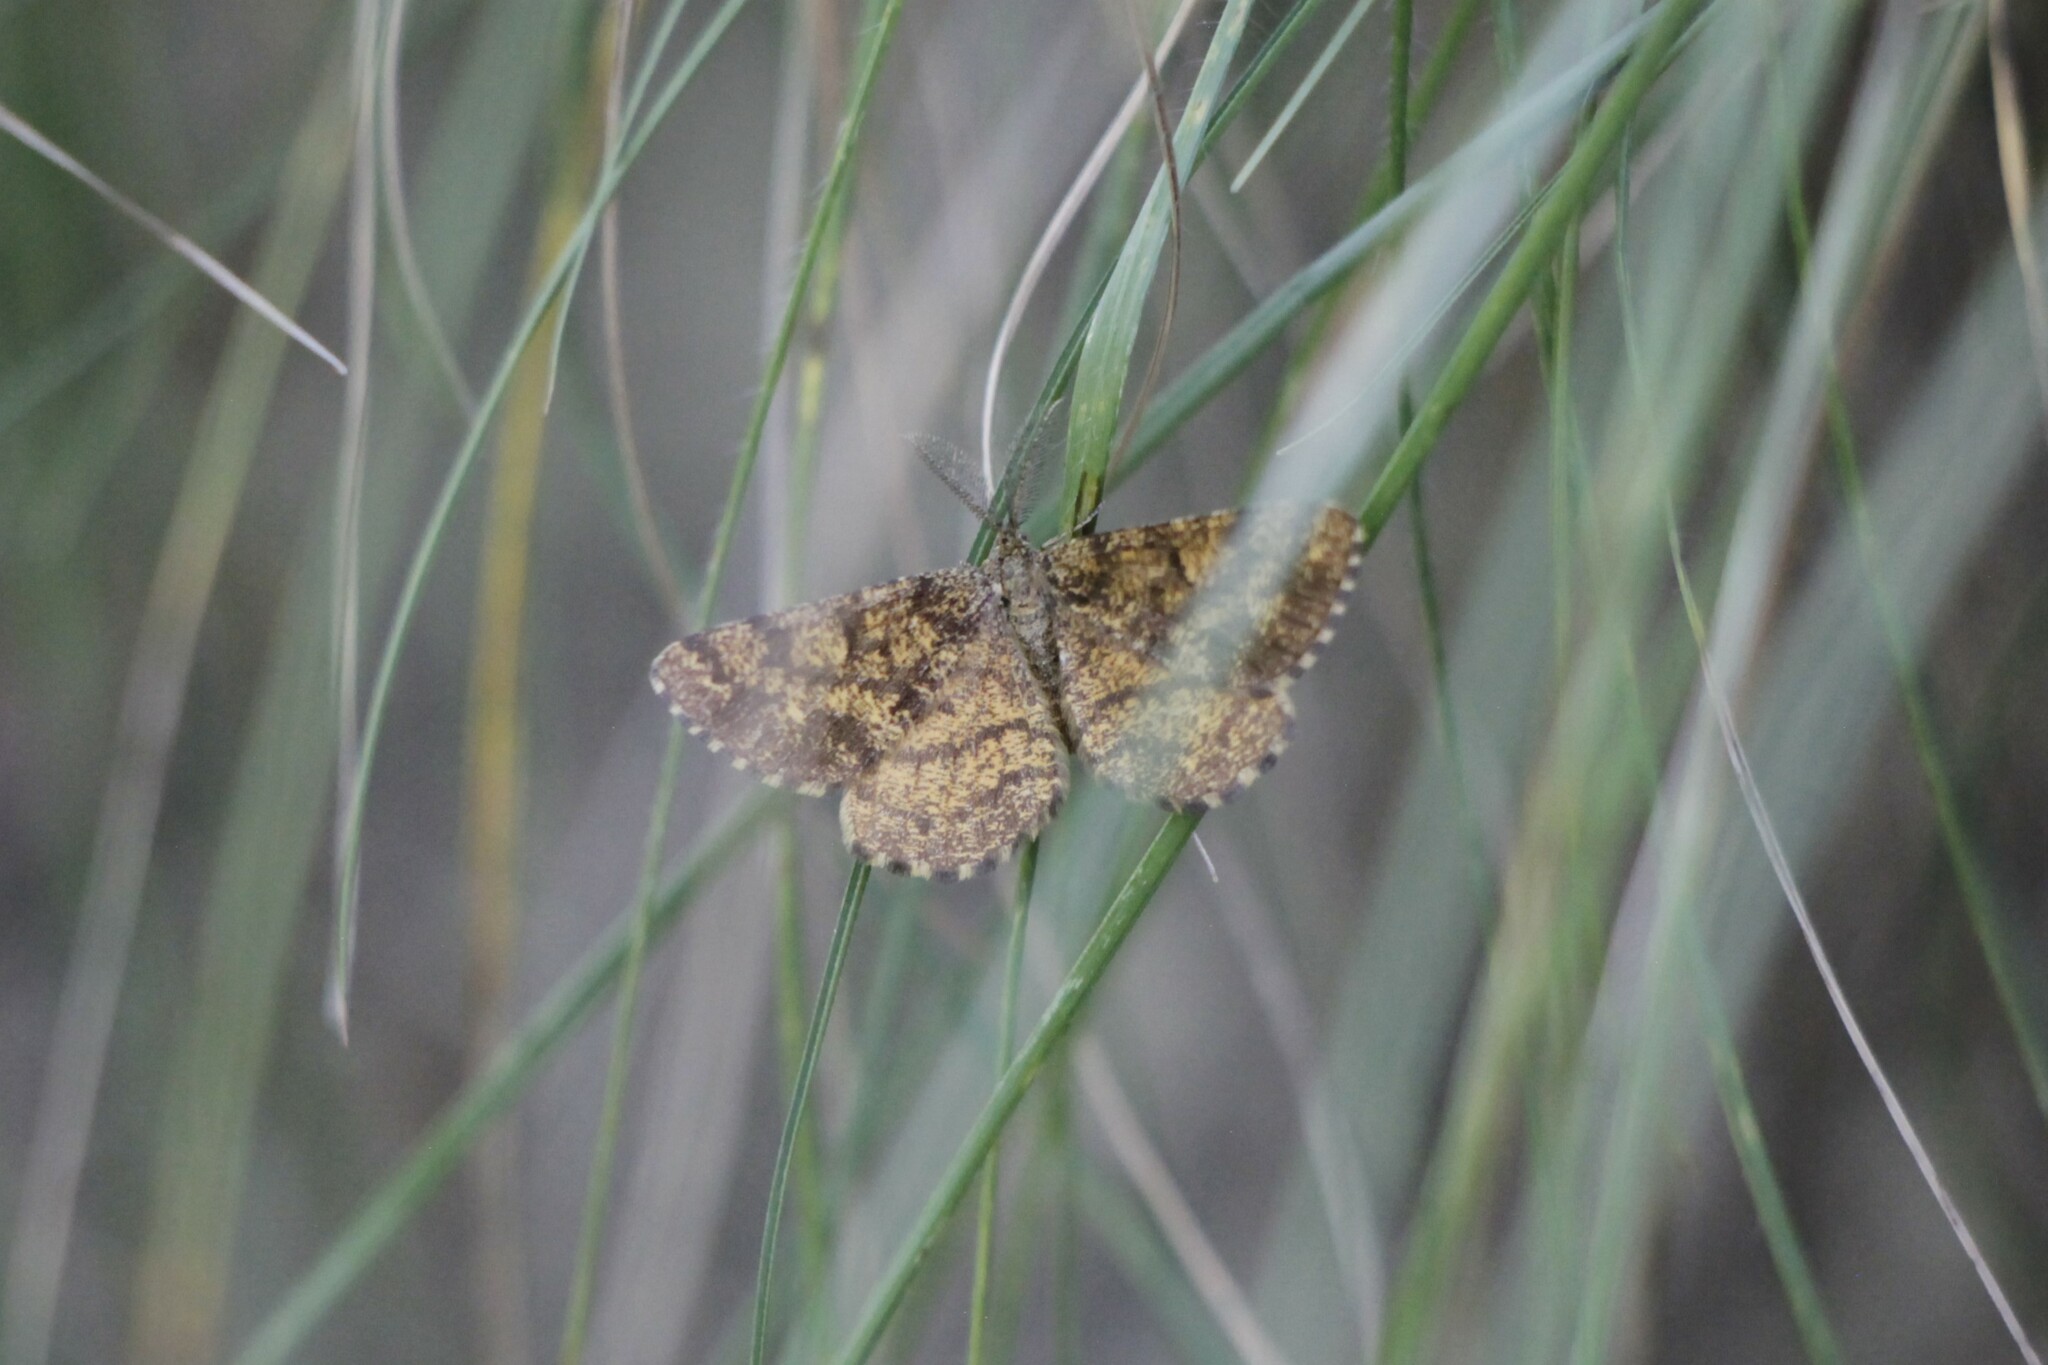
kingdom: Animalia
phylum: Arthropoda
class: Insecta
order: Lepidoptera
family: Geometridae
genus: Ematurga
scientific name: Ematurga atomaria
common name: Common heath
